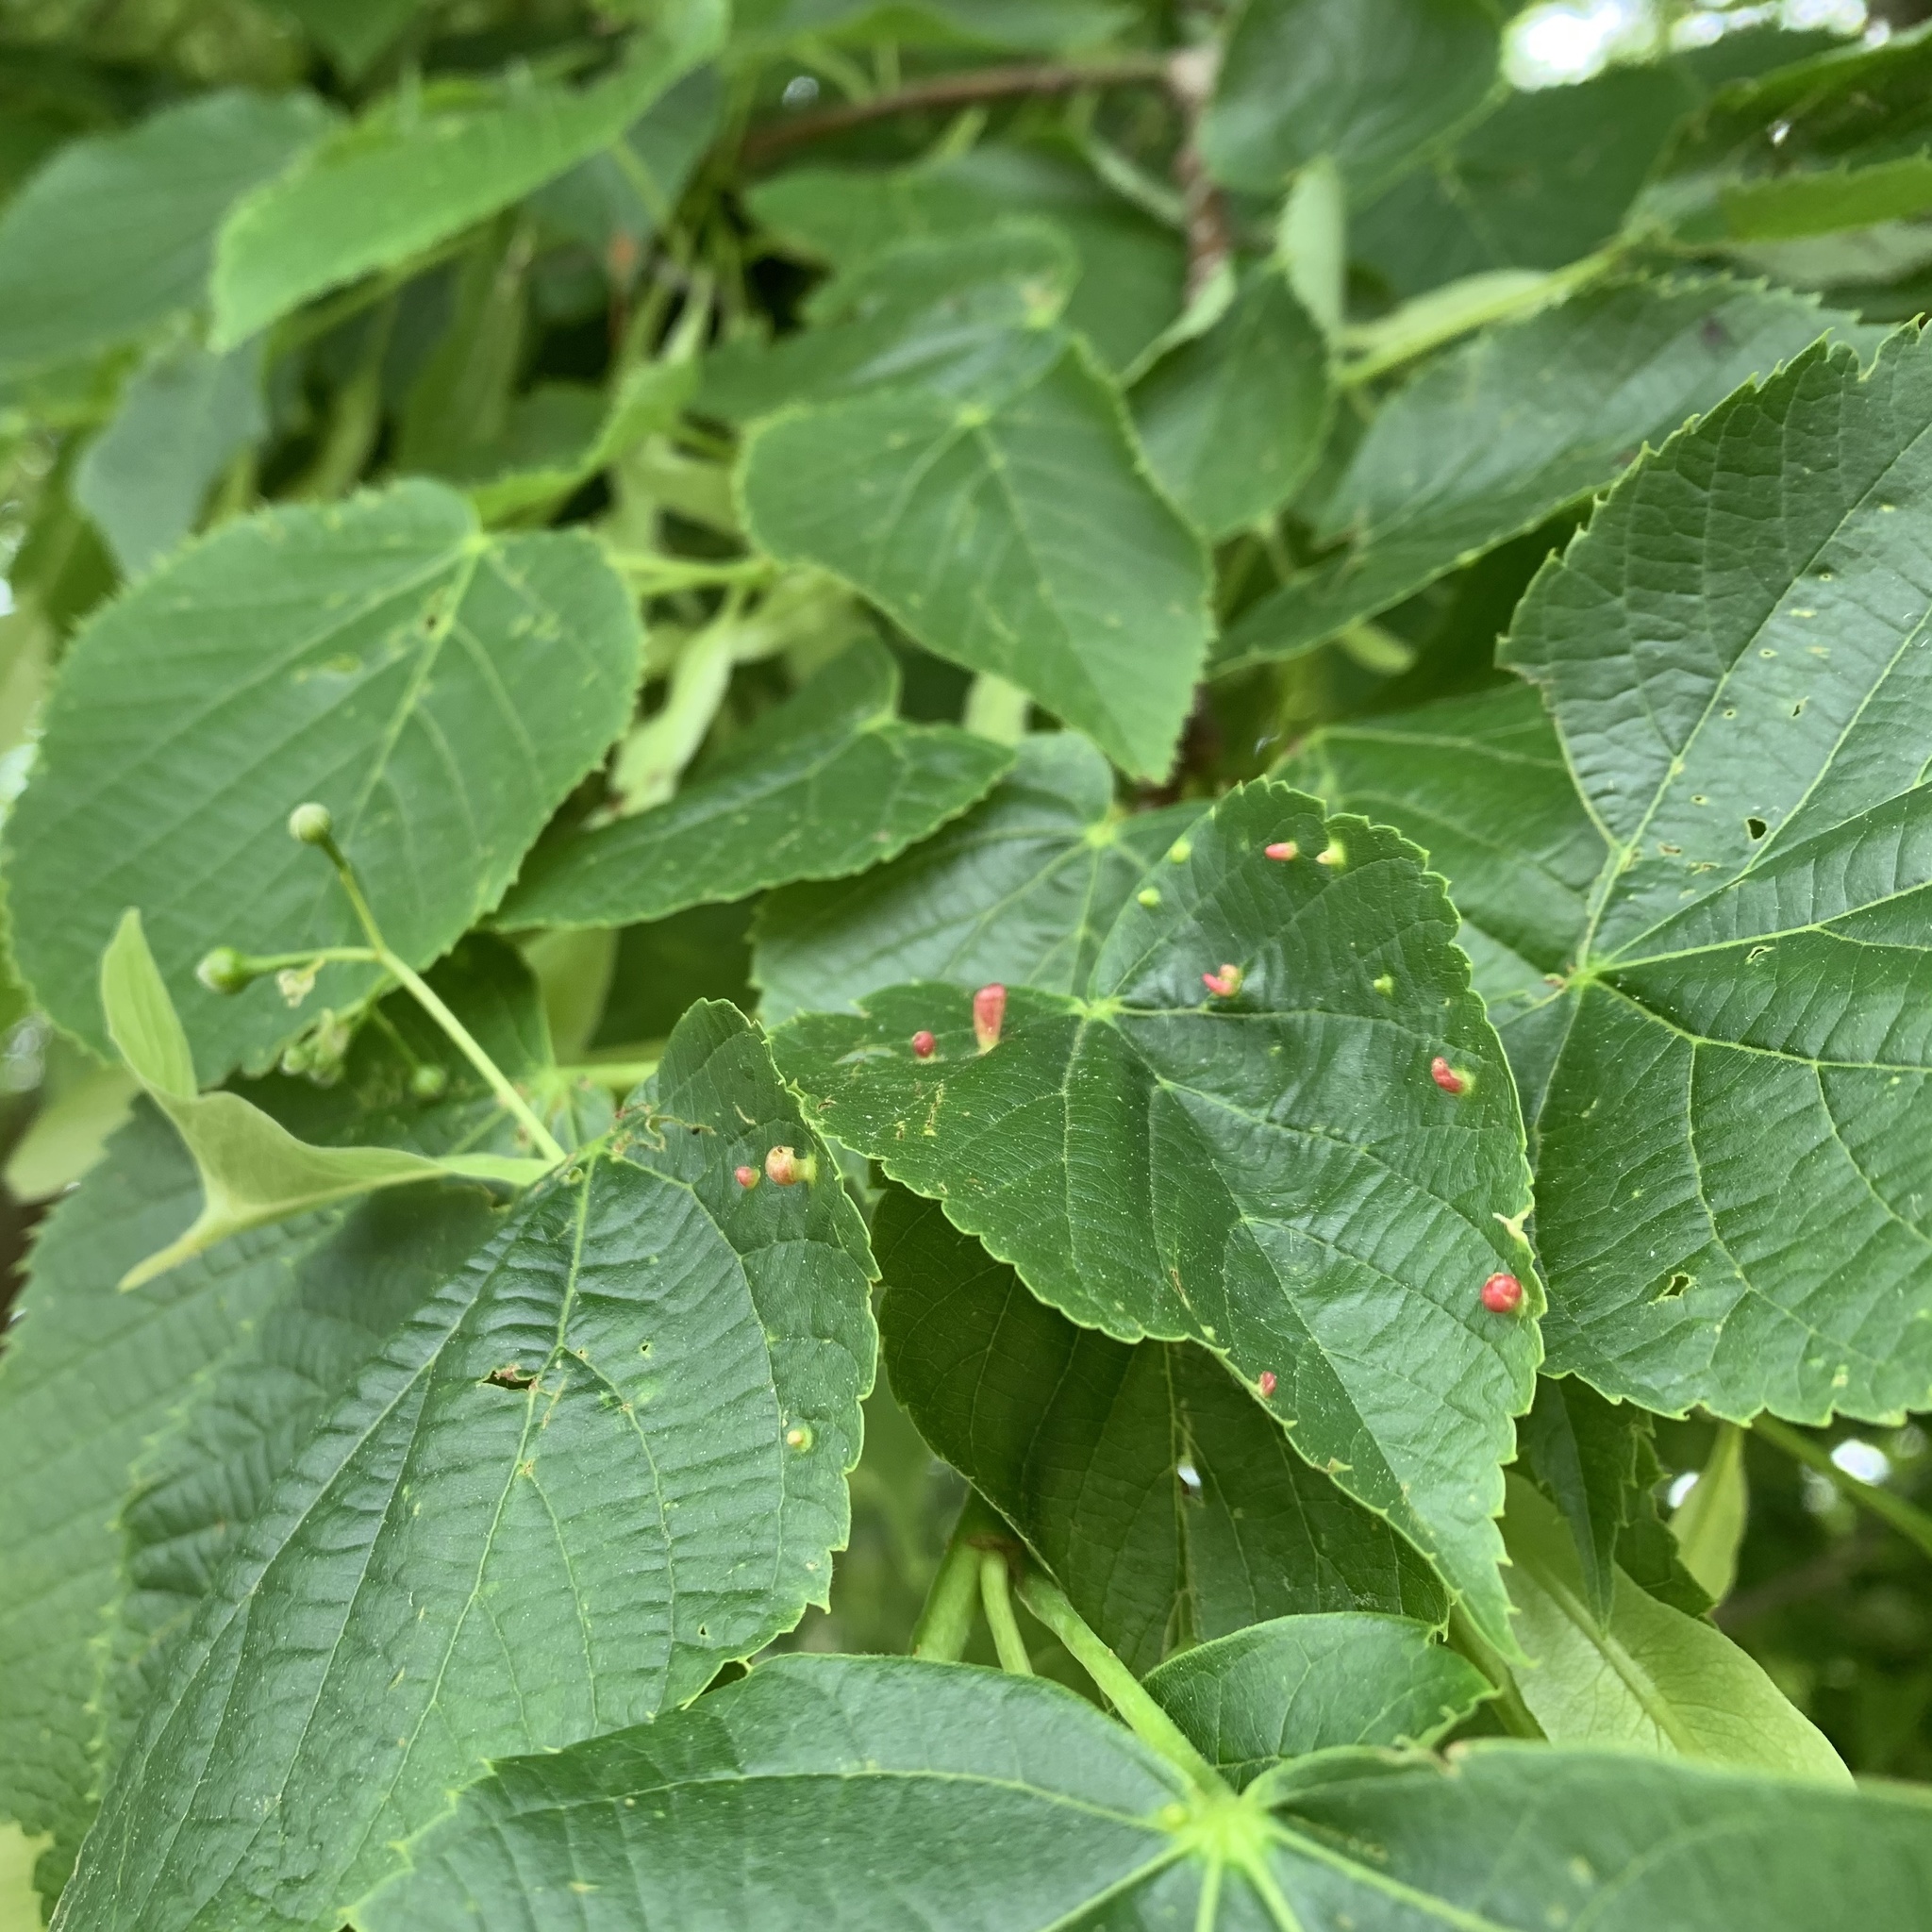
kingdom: Animalia
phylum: Arthropoda
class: Arachnida
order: Trombidiformes
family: Eriophyidae
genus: Eriophyes
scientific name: Eriophyes tiliae
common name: Red nail gall mite
